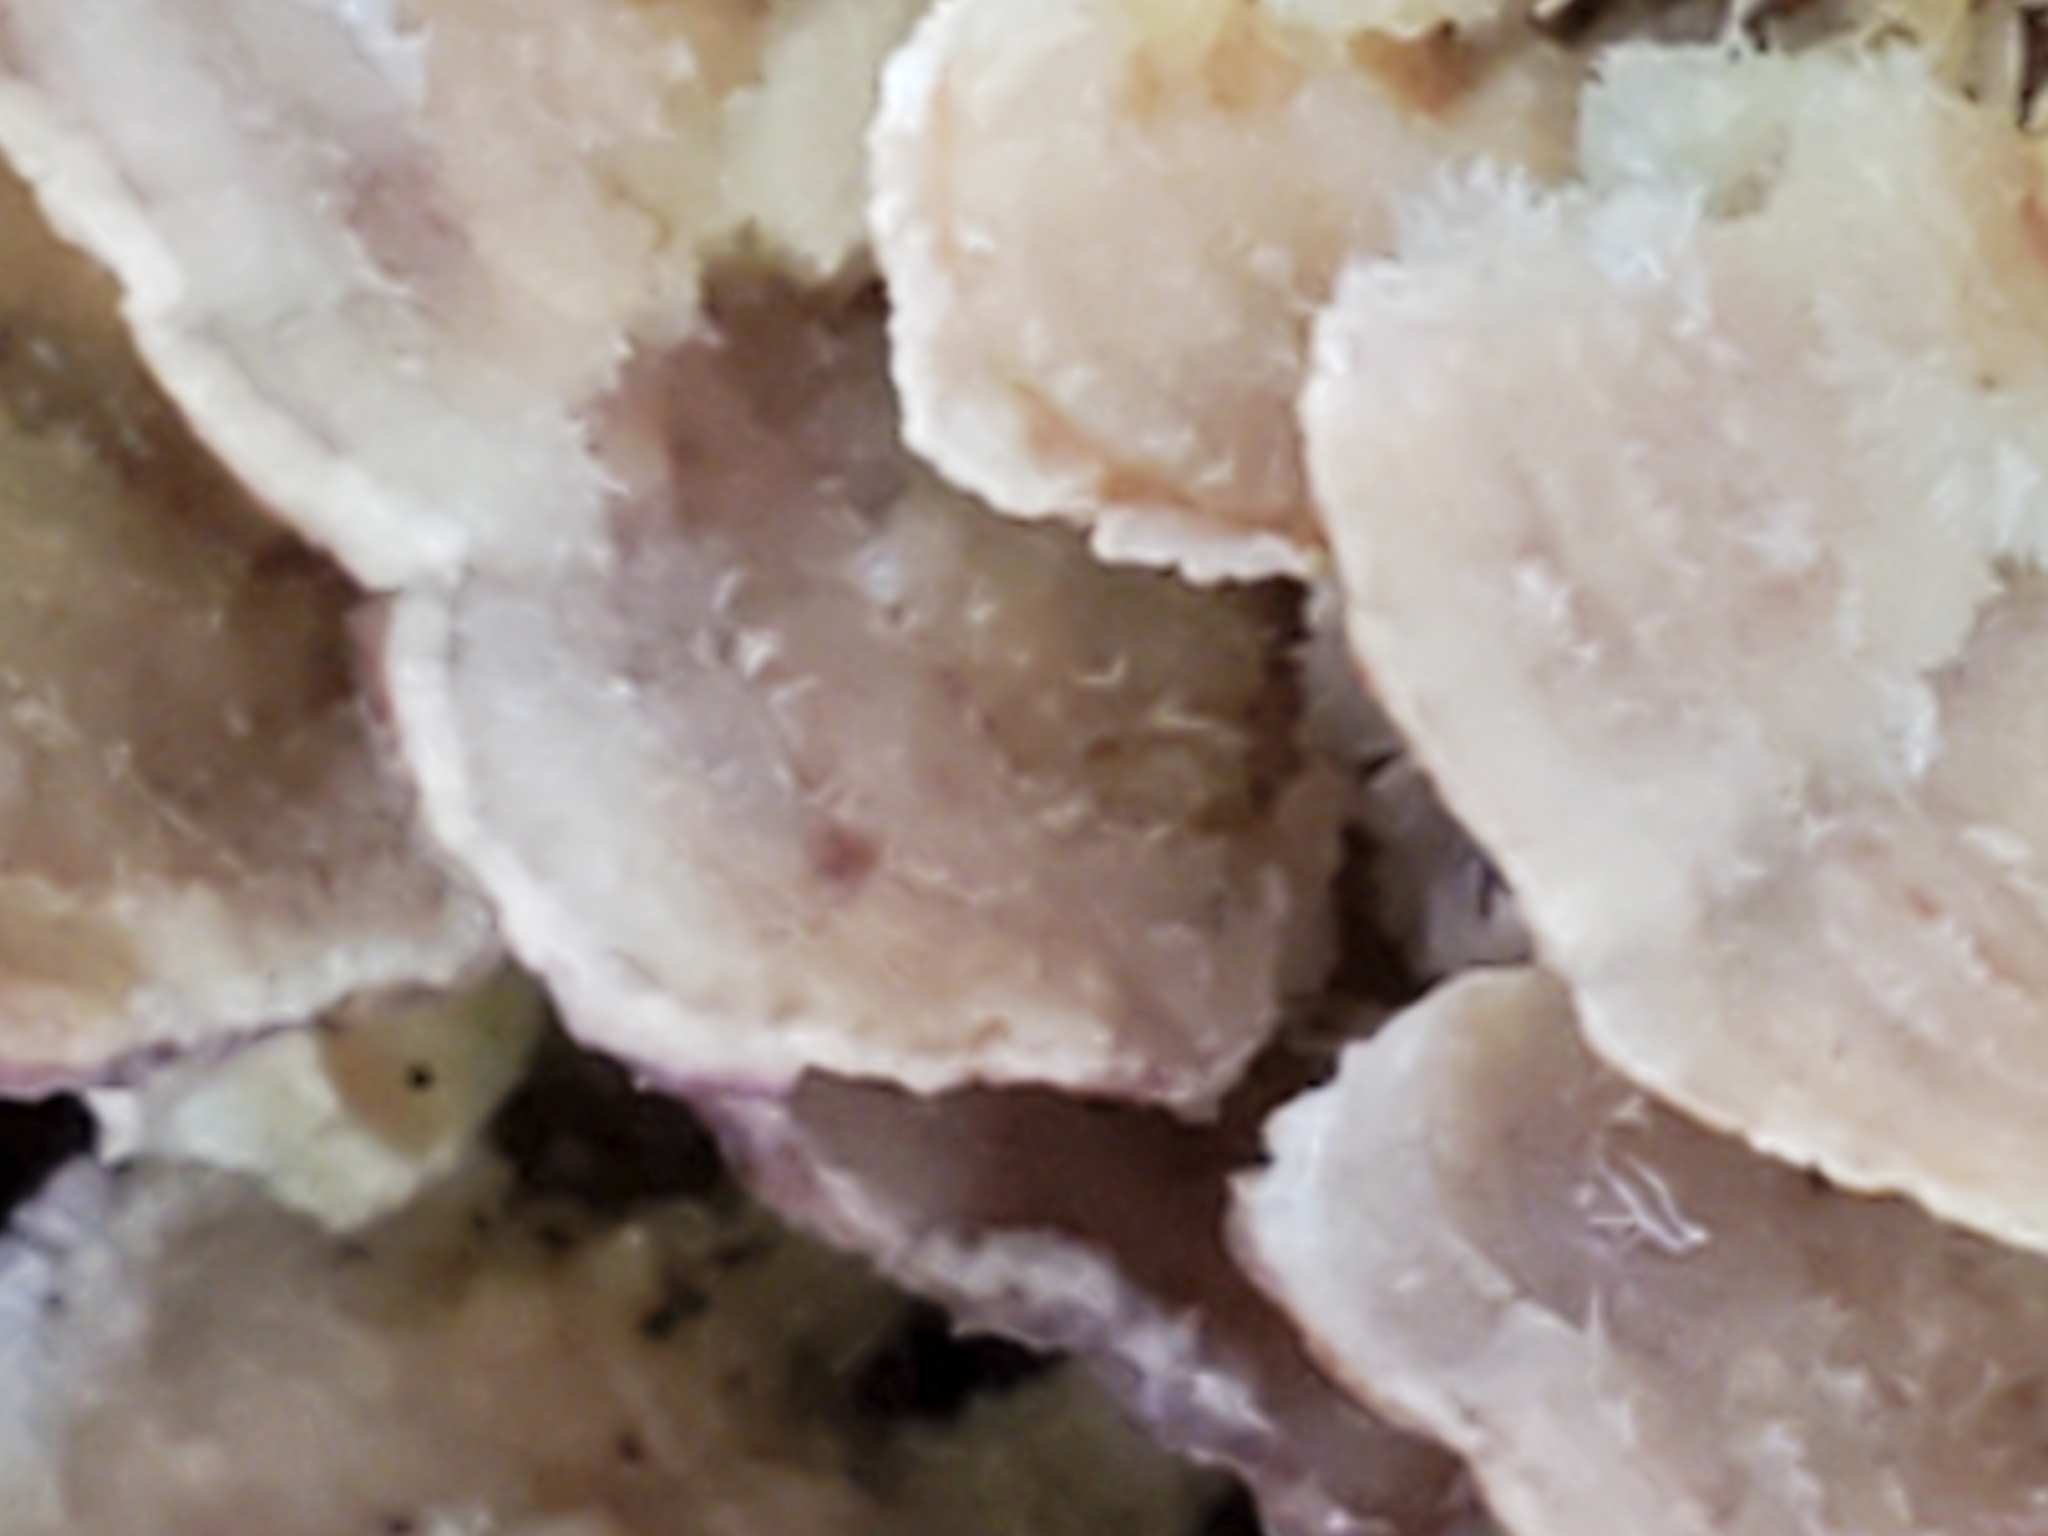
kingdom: Fungi
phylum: Basidiomycota
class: Agaricomycetes
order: Hymenochaetales
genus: Trichaptum
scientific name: Trichaptum biforme
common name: Violet-toothed polypore
